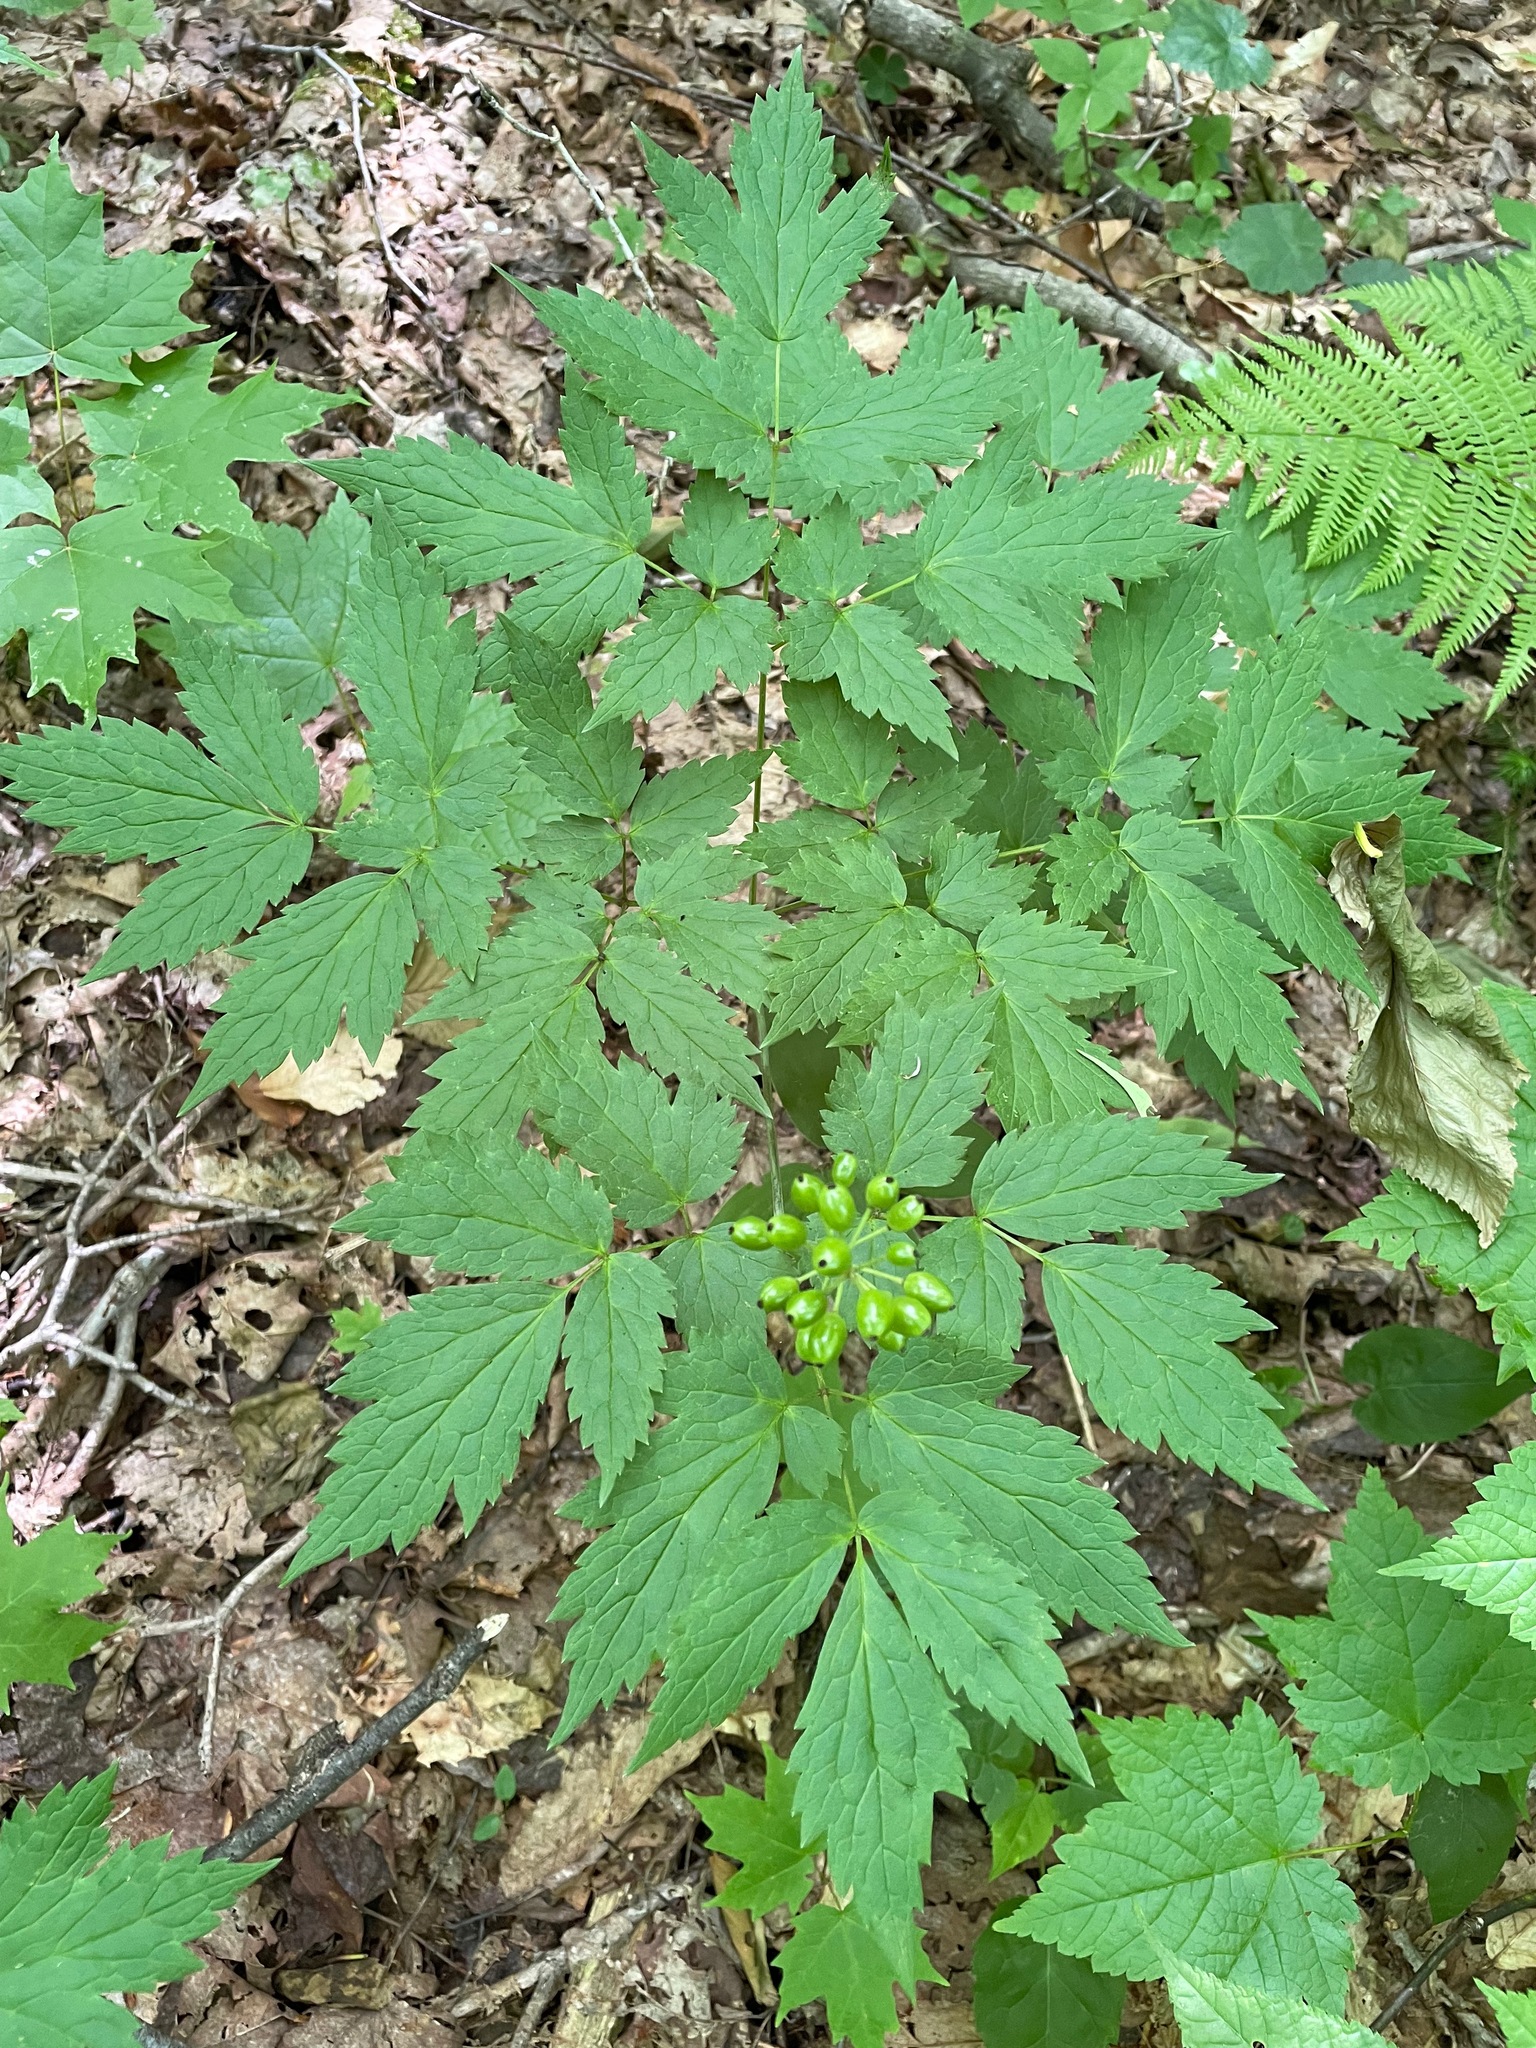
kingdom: Plantae
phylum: Tracheophyta
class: Magnoliopsida
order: Ranunculales
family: Ranunculaceae
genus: Actaea
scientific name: Actaea rubra
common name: Red baneberry
